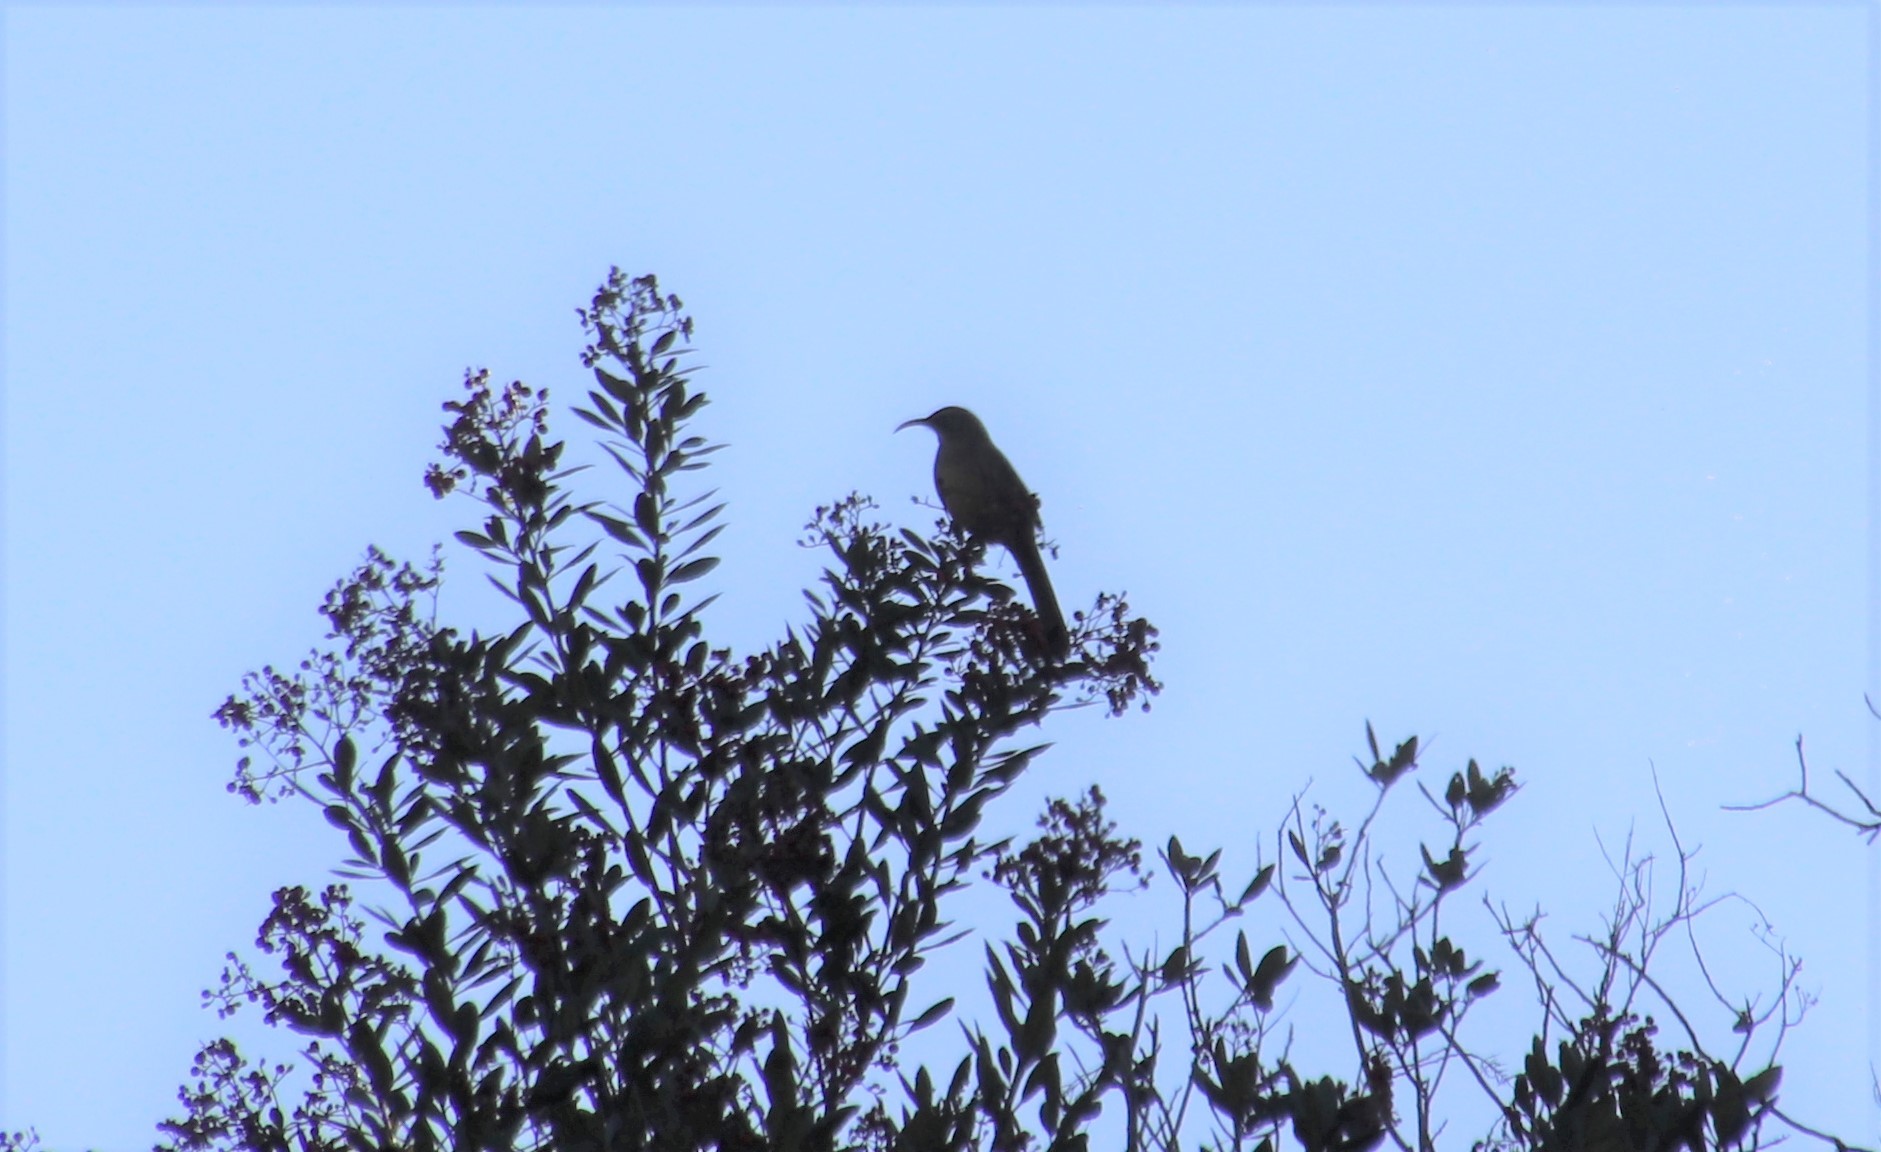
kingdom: Animalia
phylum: Chordata
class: Aves
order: Passeriformes
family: Mimidae
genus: Toxostoma
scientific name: Toxostoma redivivum
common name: California thrasher
